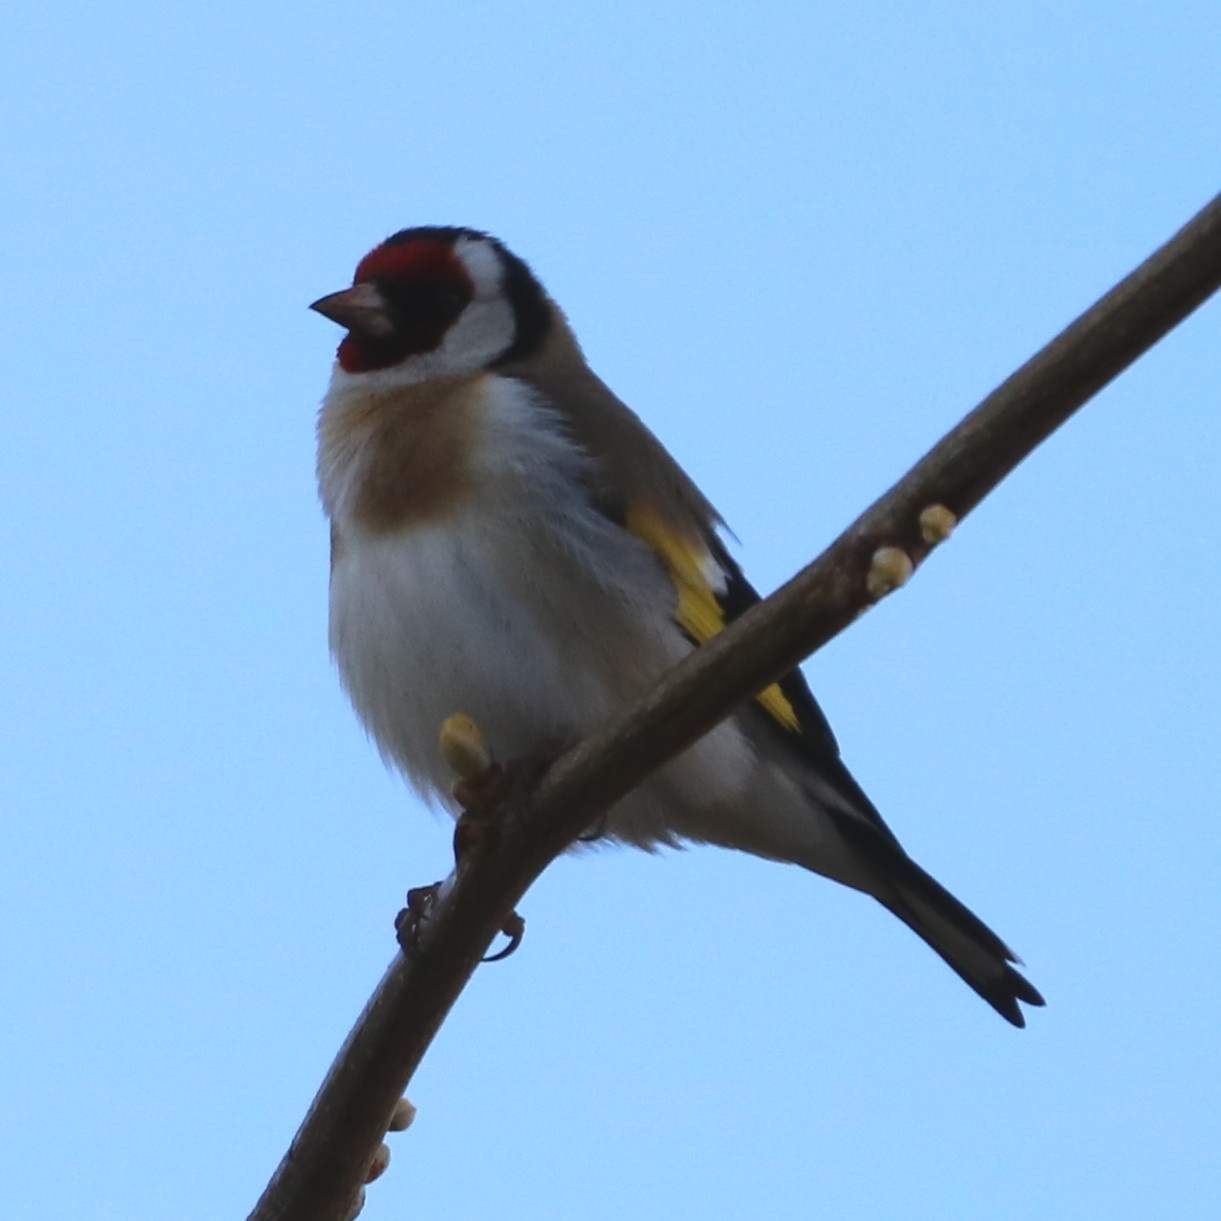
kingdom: Animalia
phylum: Chordata
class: Aves
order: Passeriformes
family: Fringillidae
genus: Carduelis
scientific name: Carduelis carduelis
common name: European goldfinch
